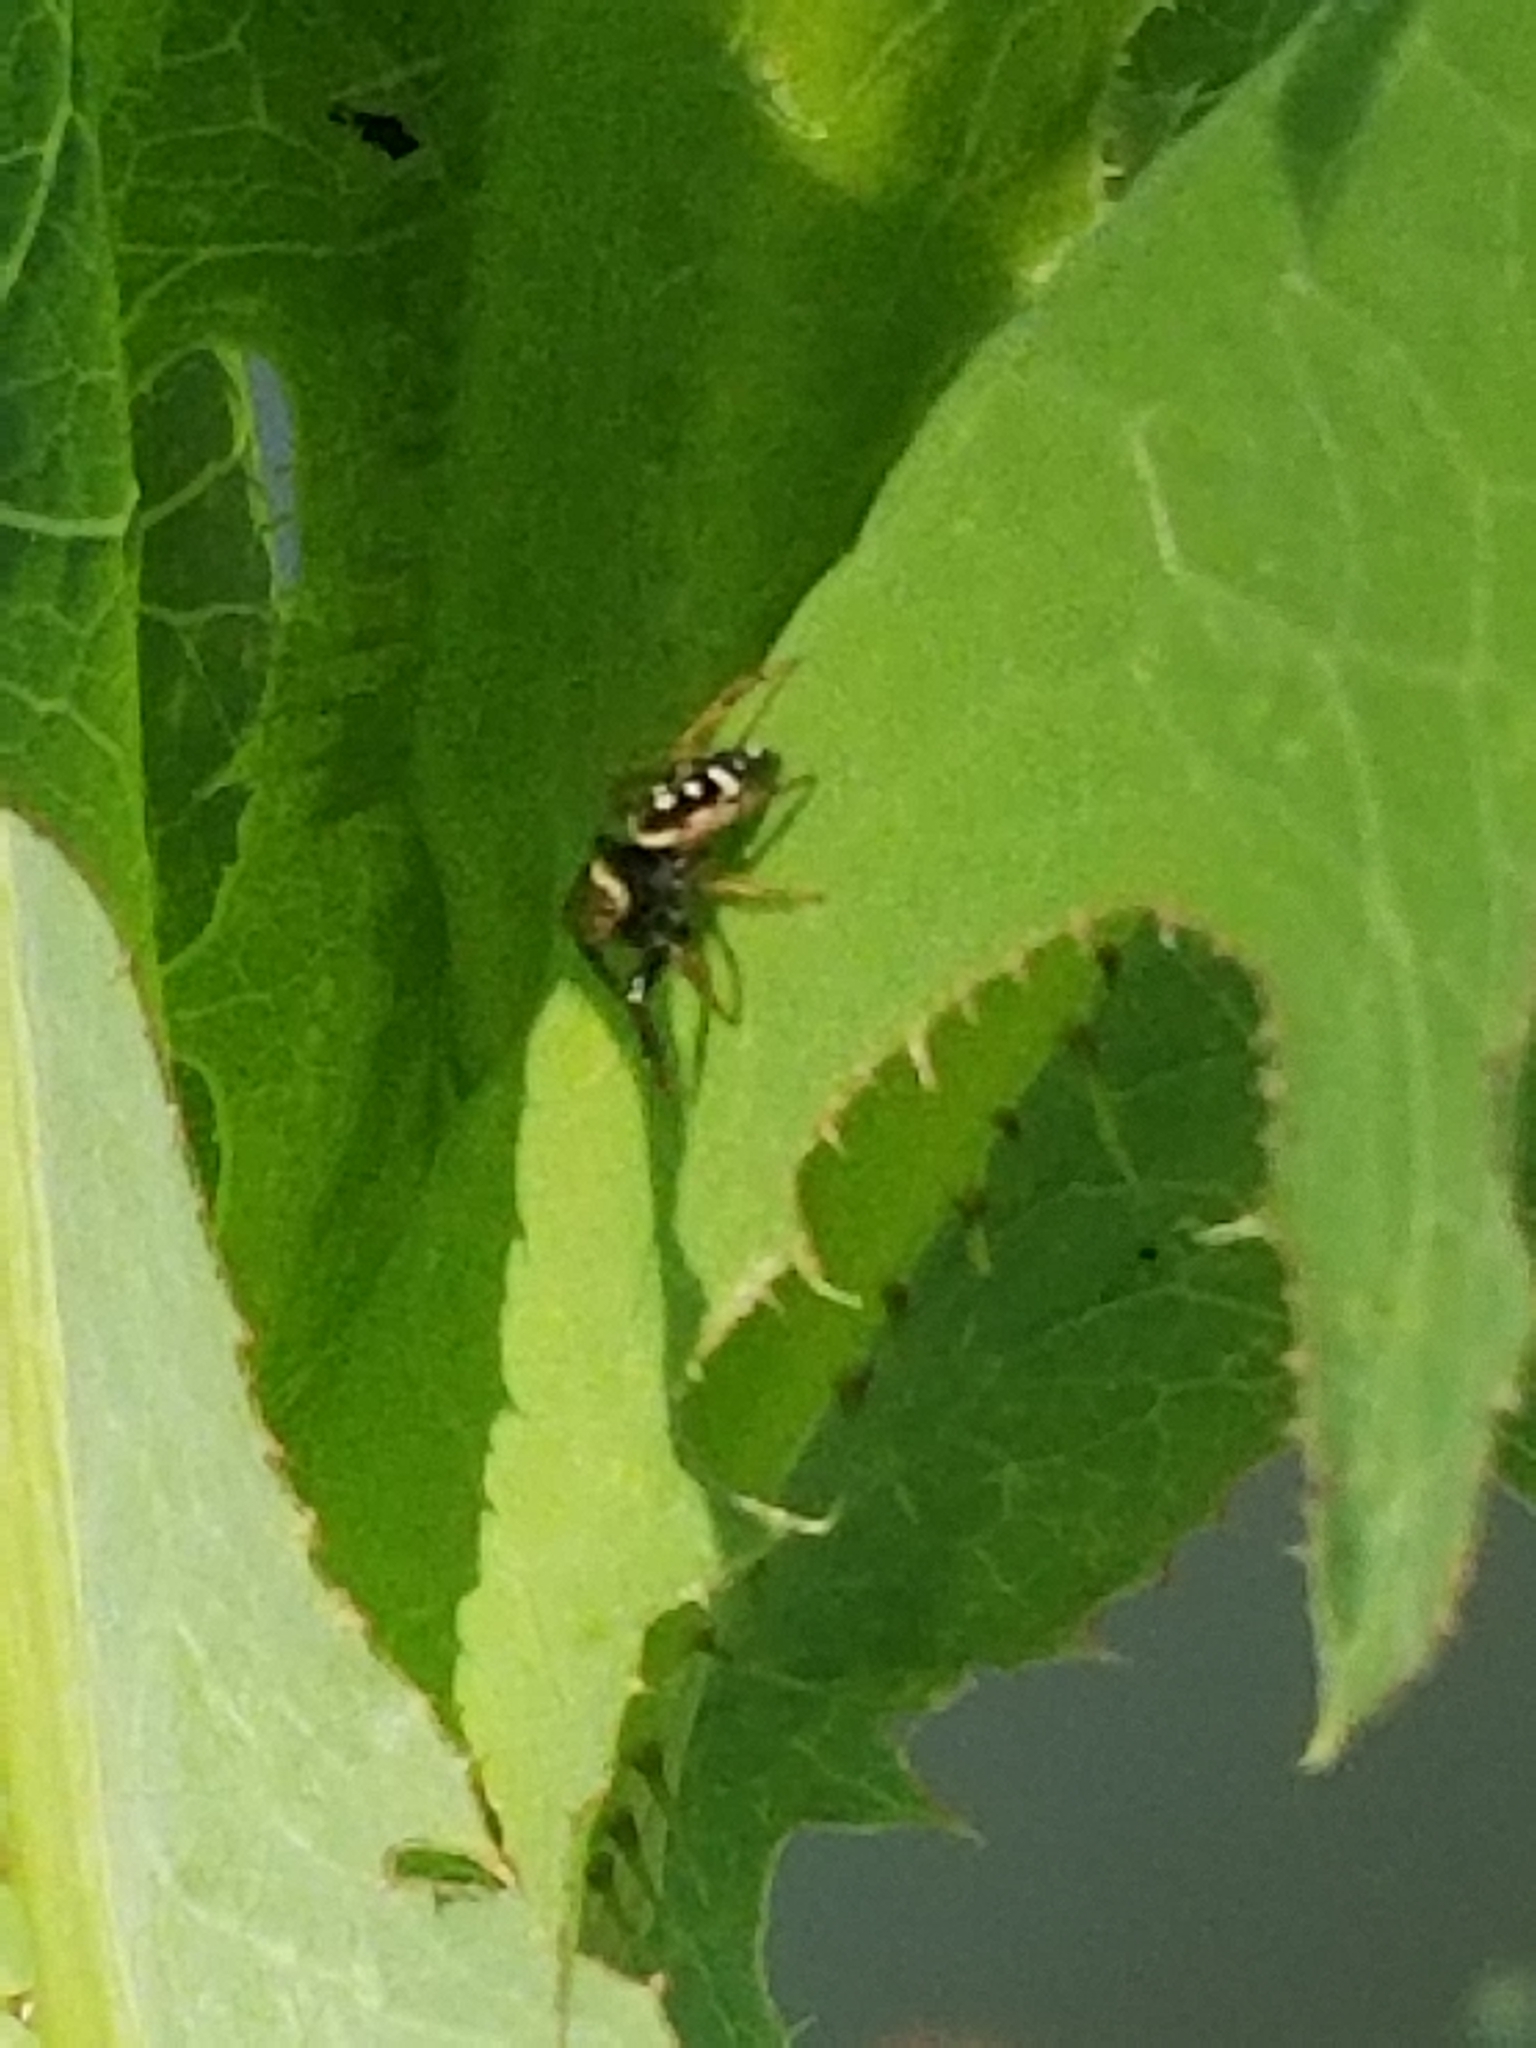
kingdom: Animalia
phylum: Arthropoda
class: Arachnida
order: Araneae
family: Salticidae
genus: Paraphidippus
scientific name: Paraphidippus aurantius
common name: Jumping spiders
